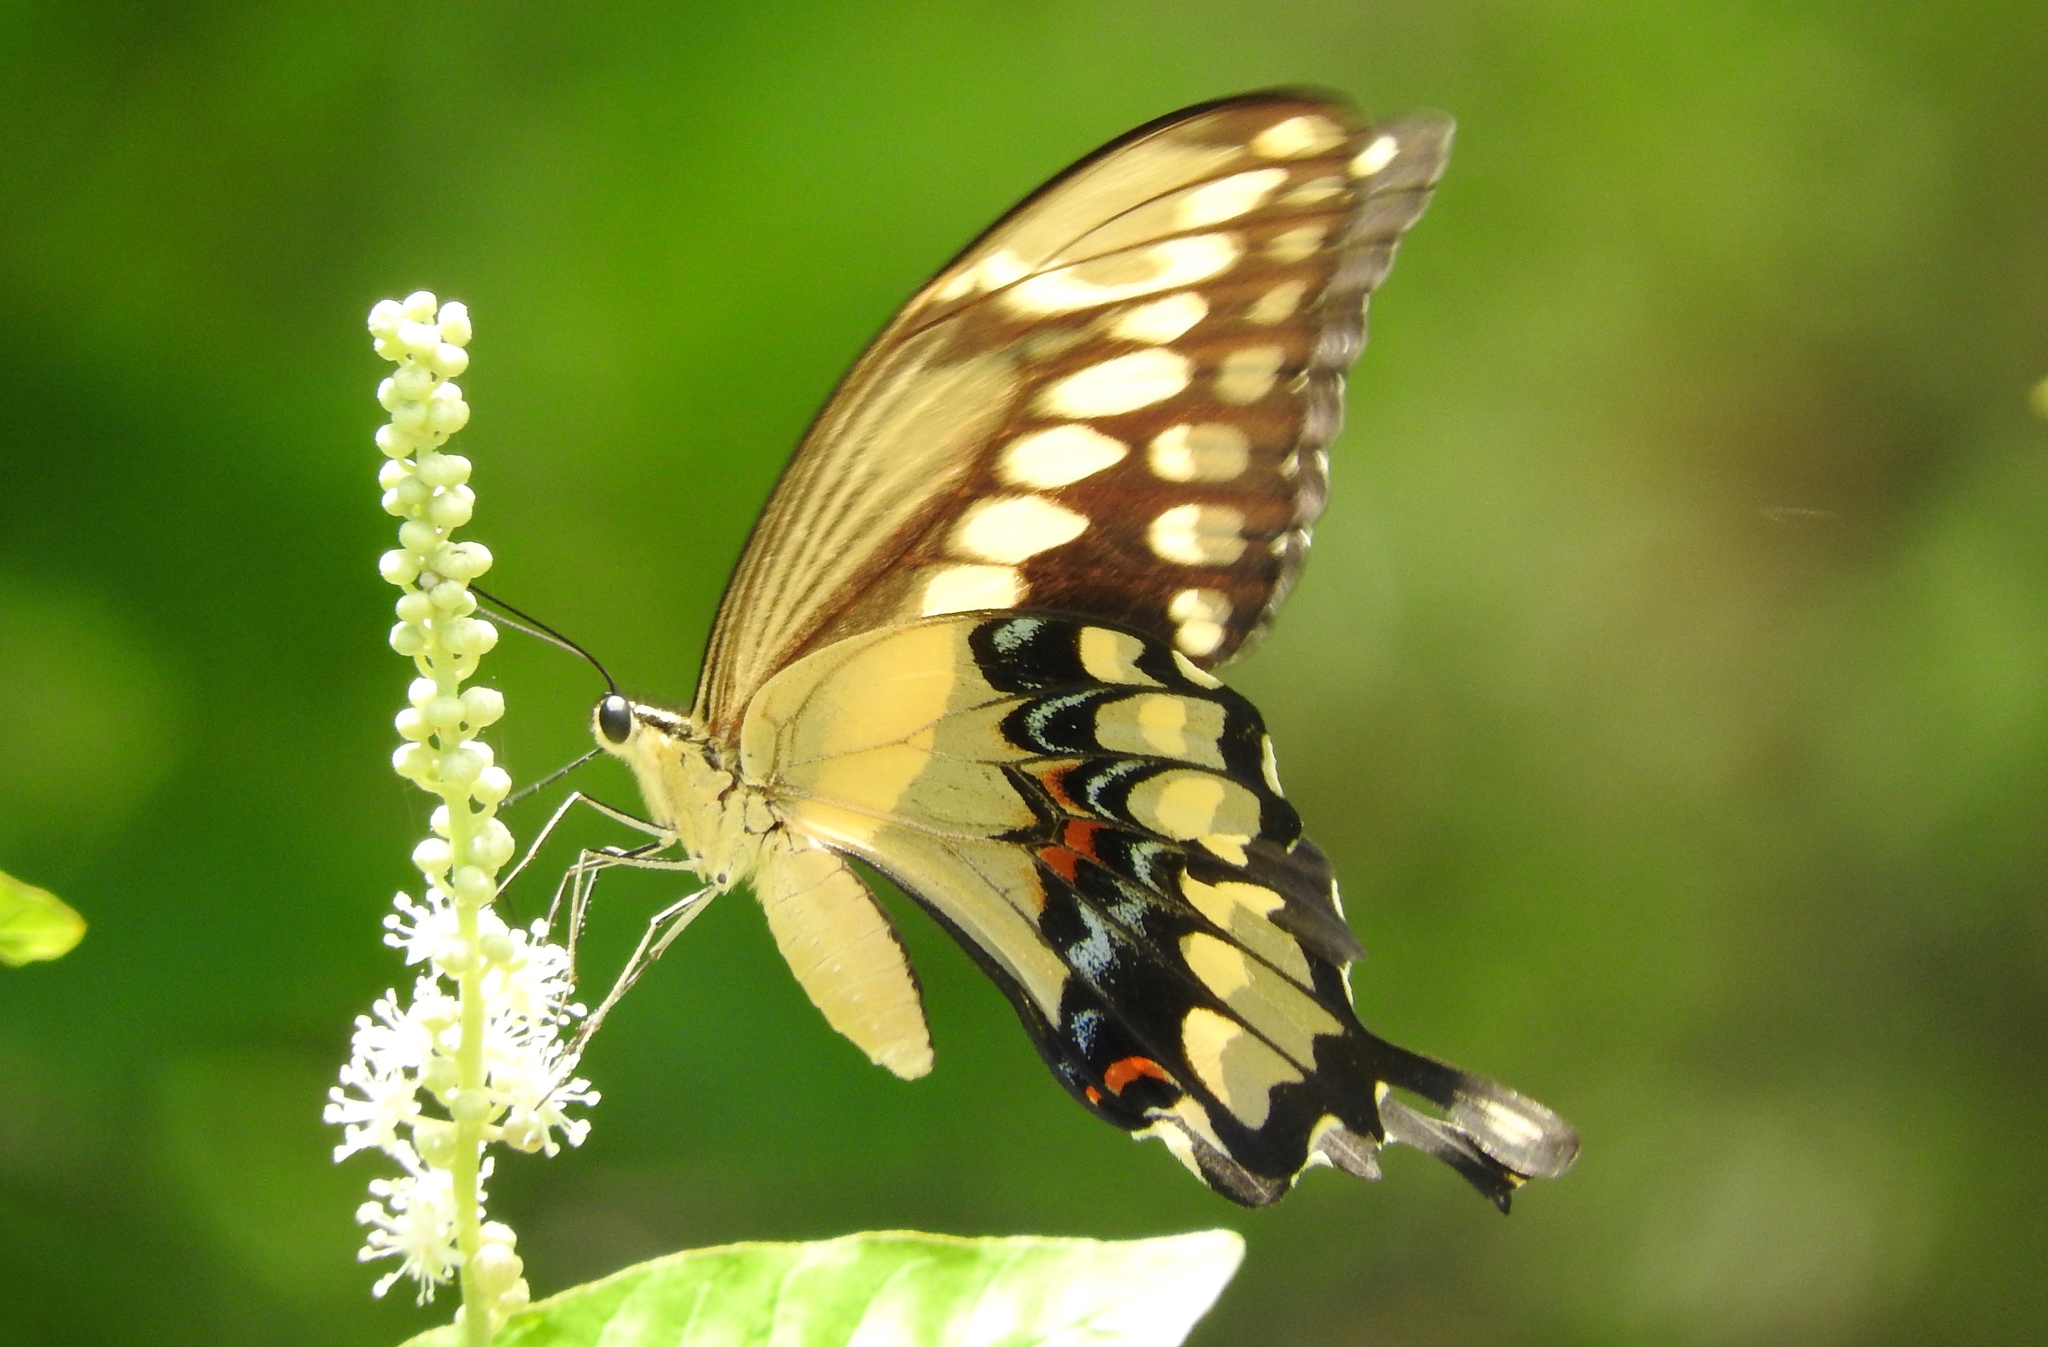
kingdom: Animalia
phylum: Arthropoda
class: Insecta
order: Lepidoptera
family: Papilionidae
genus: Papilio
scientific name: Papilio rumiko
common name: Western giant swallowtail
